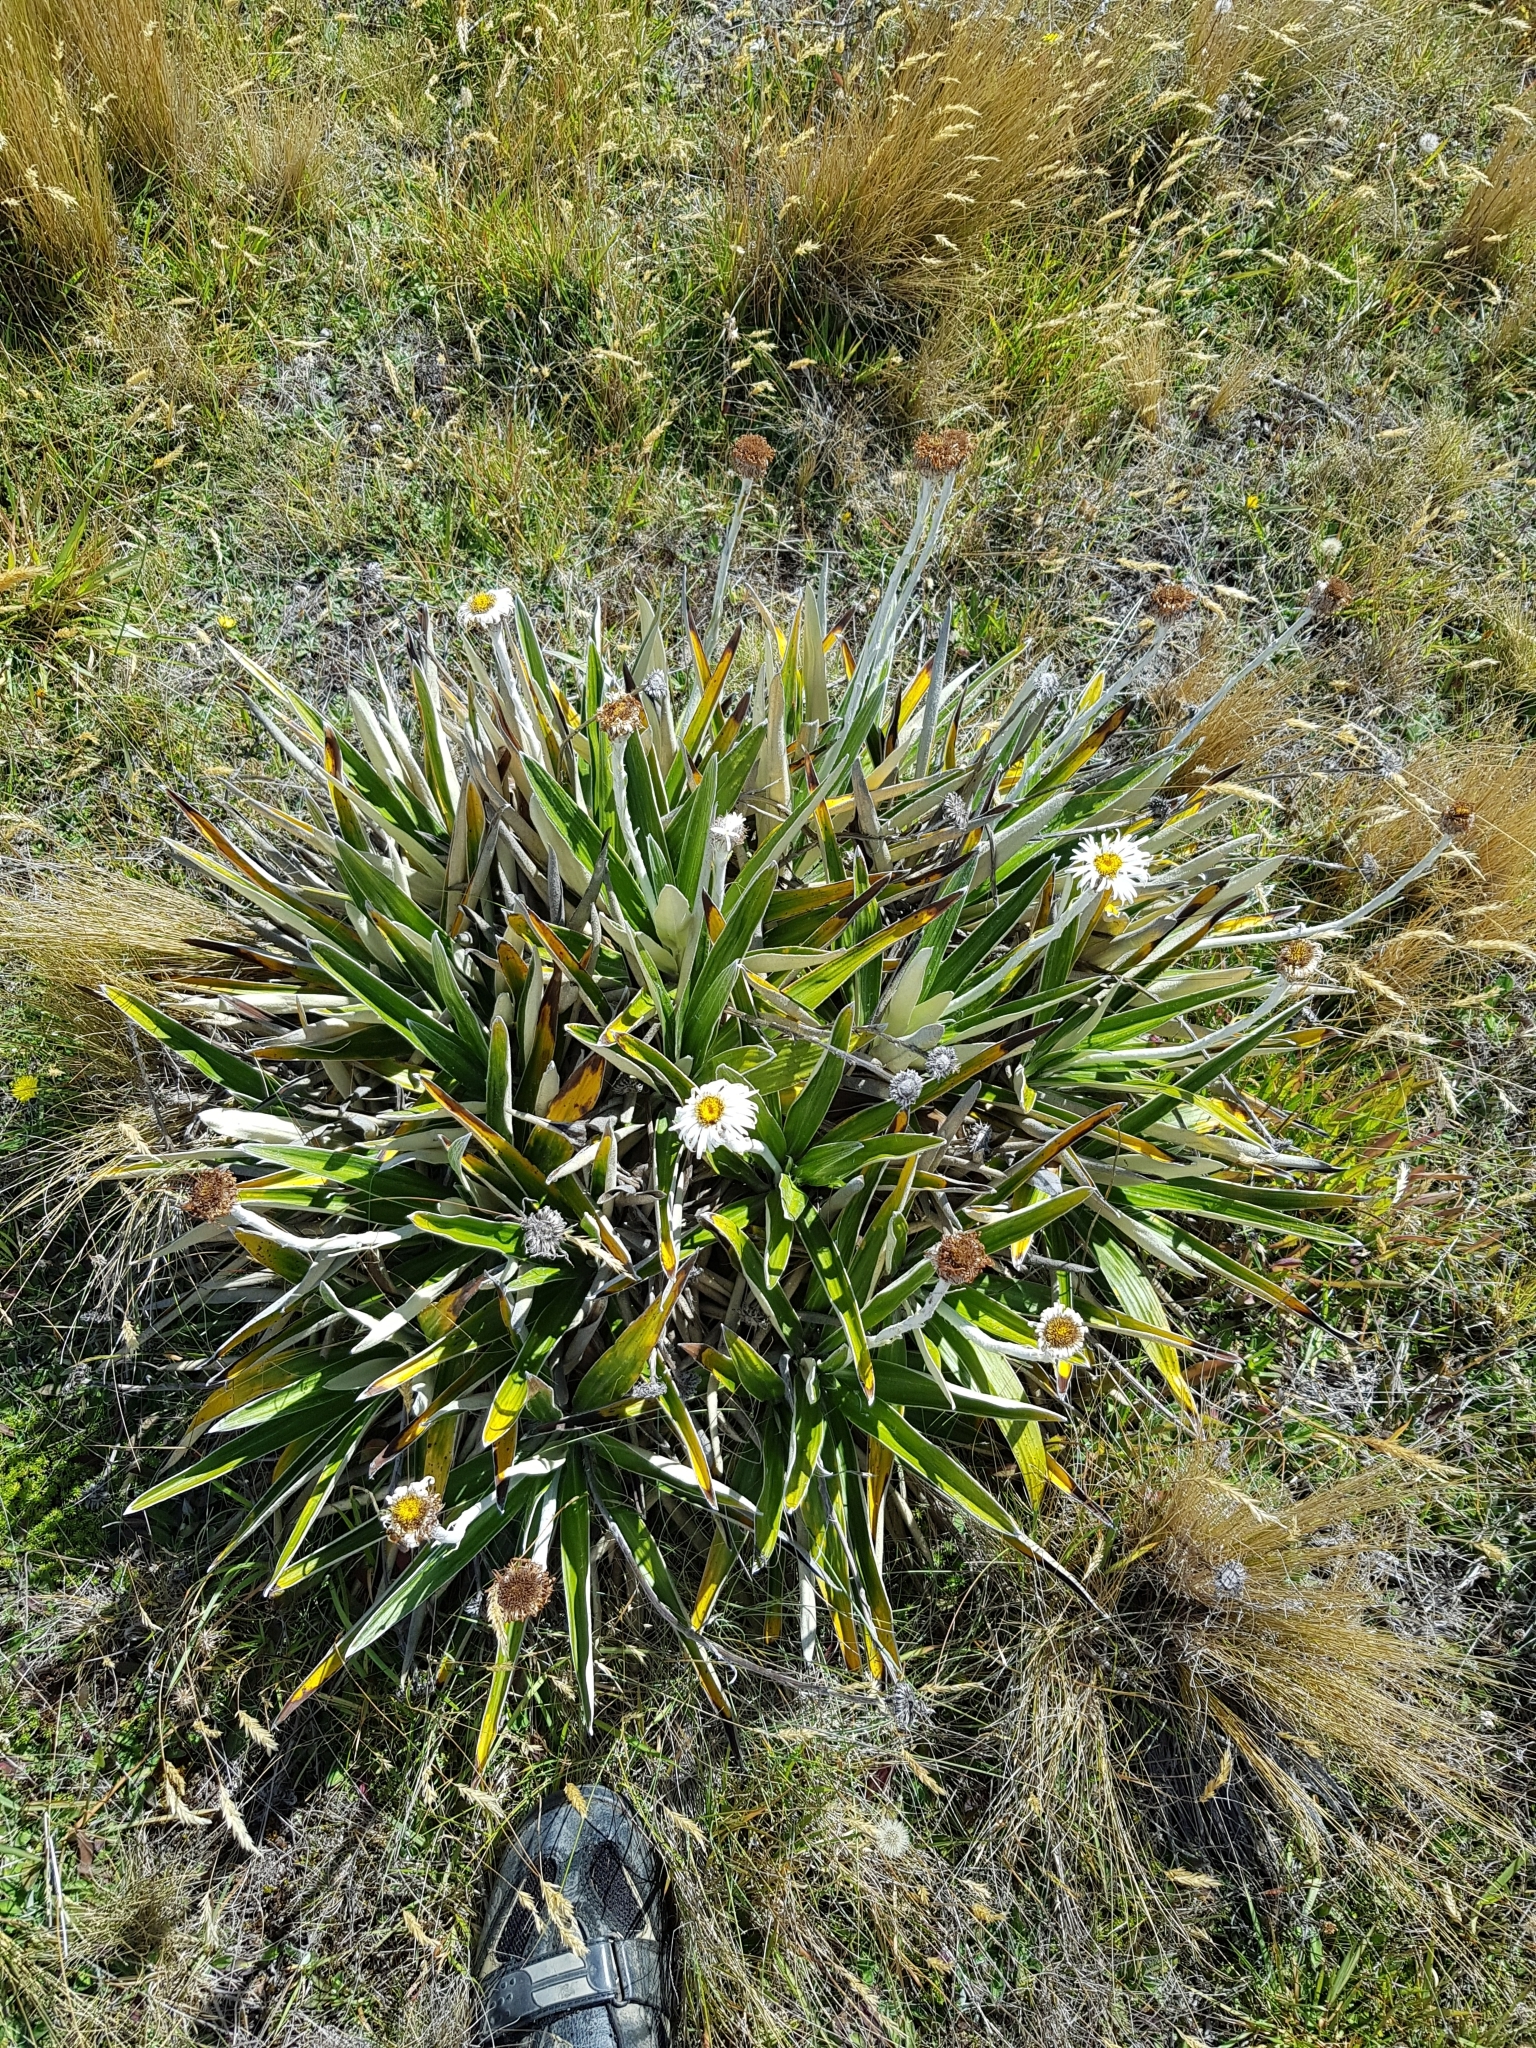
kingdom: Plantae
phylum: Tracheophyta
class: Magnoliopsida
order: Asterales
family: Asteraceae
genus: Celmisia
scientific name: Celmisia spectabilis
